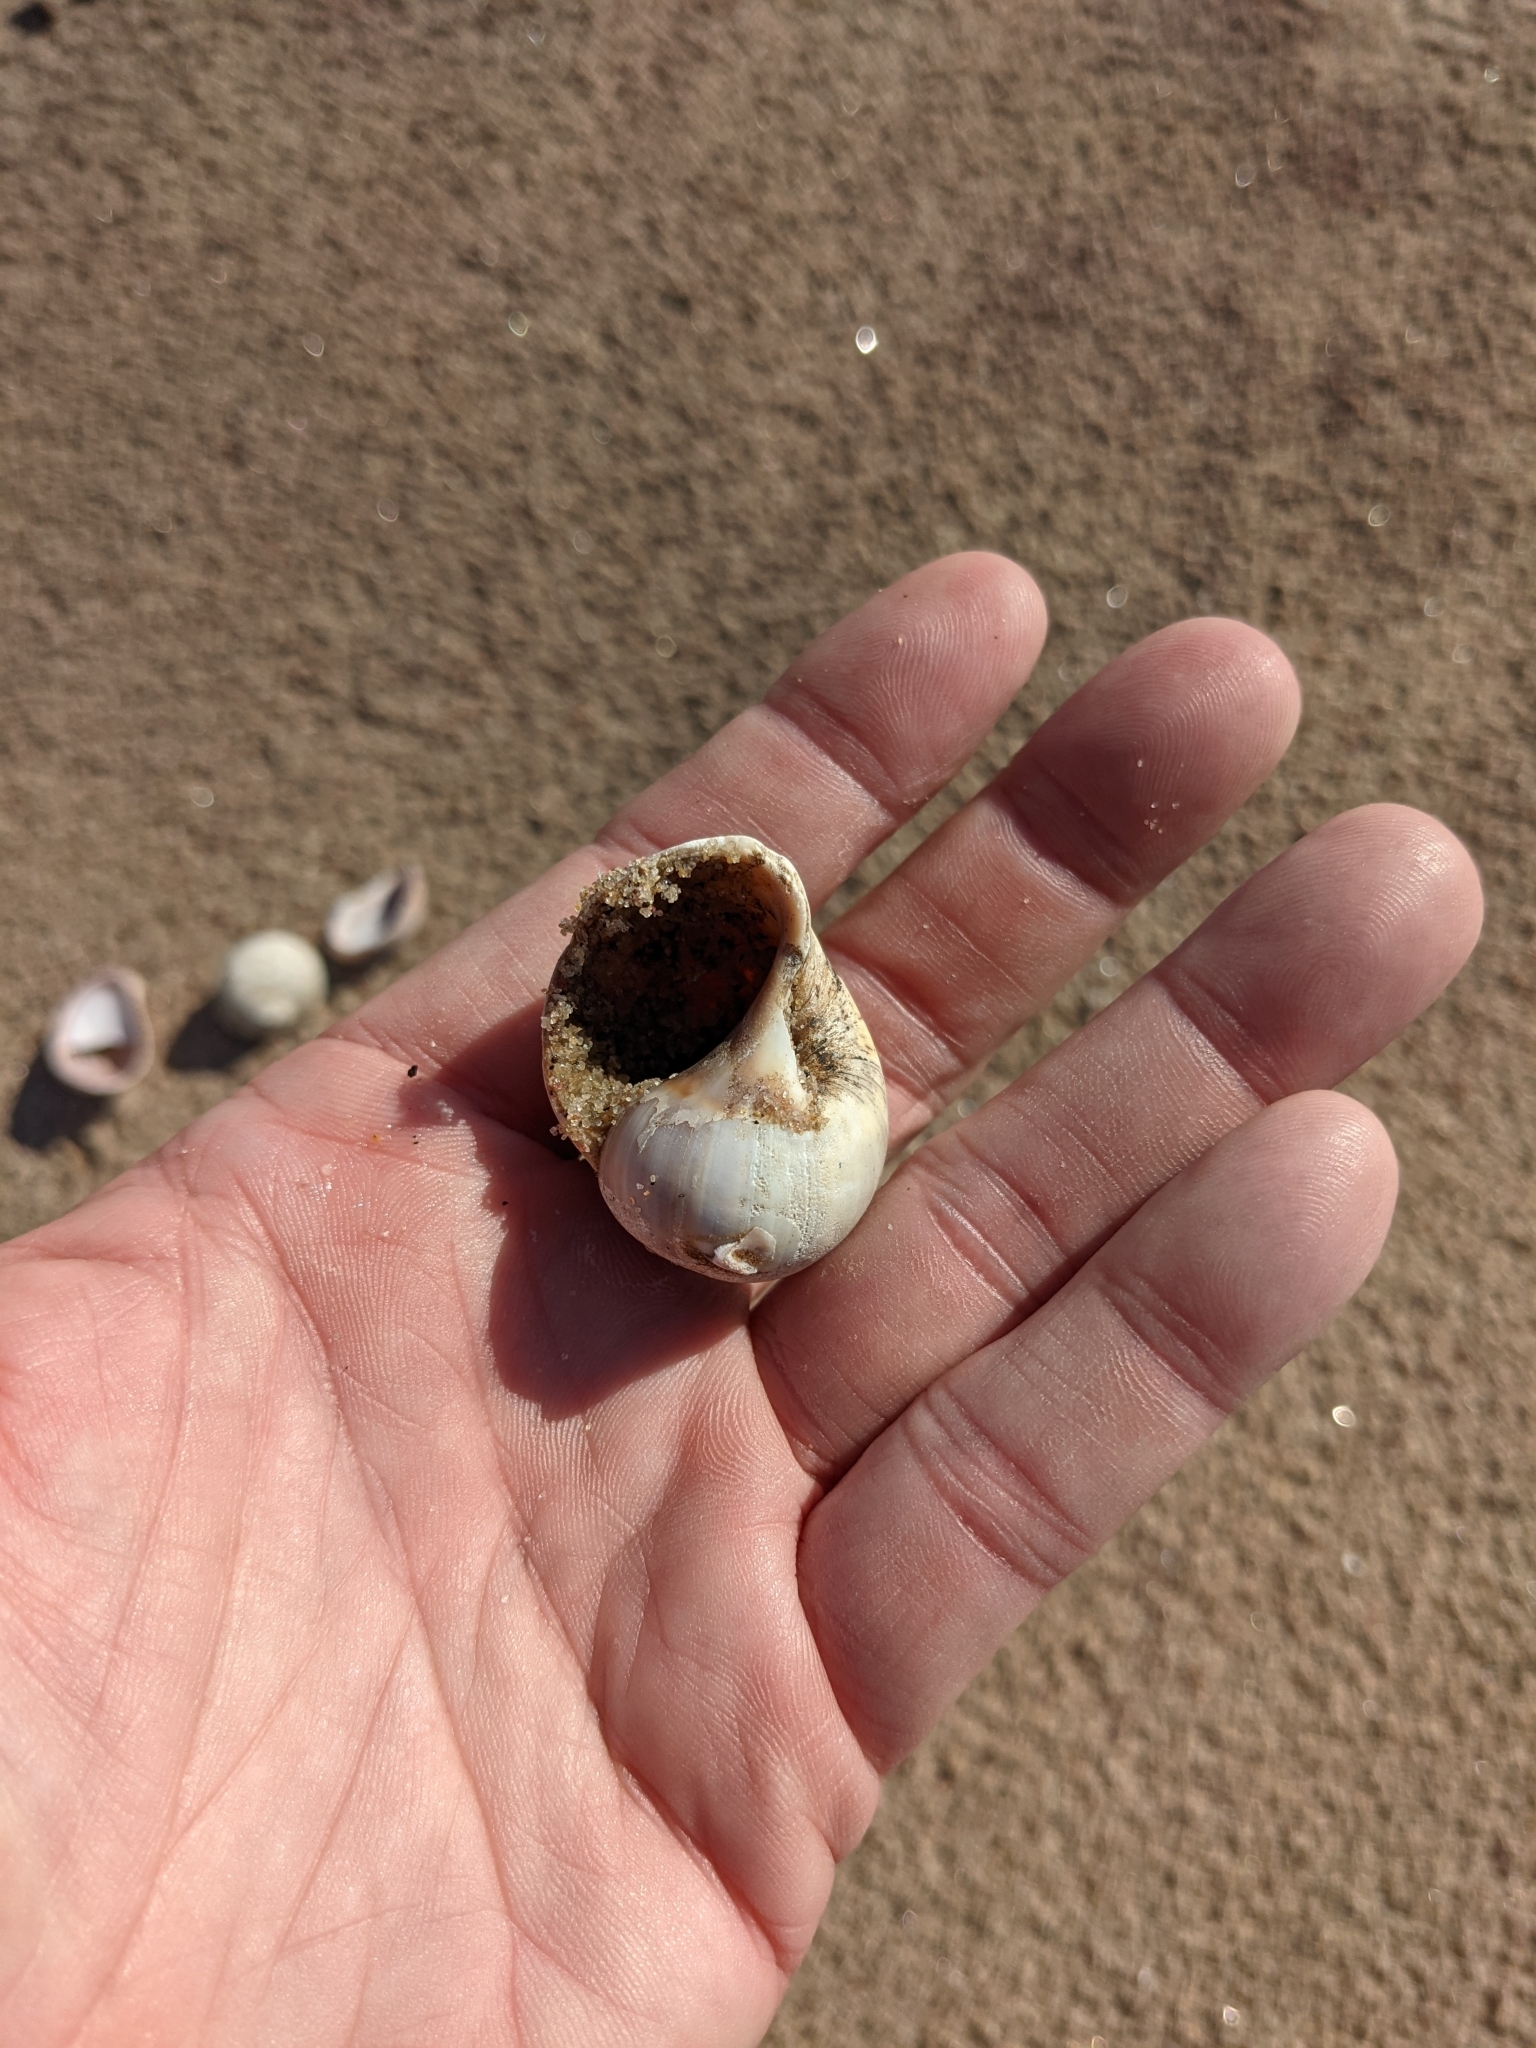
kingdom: Animalia
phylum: Mollusca
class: Gastropoda
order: Littorinimorpha
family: Naticidae
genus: Euspira
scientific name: Euspira heros
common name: Common northern moonsnail
